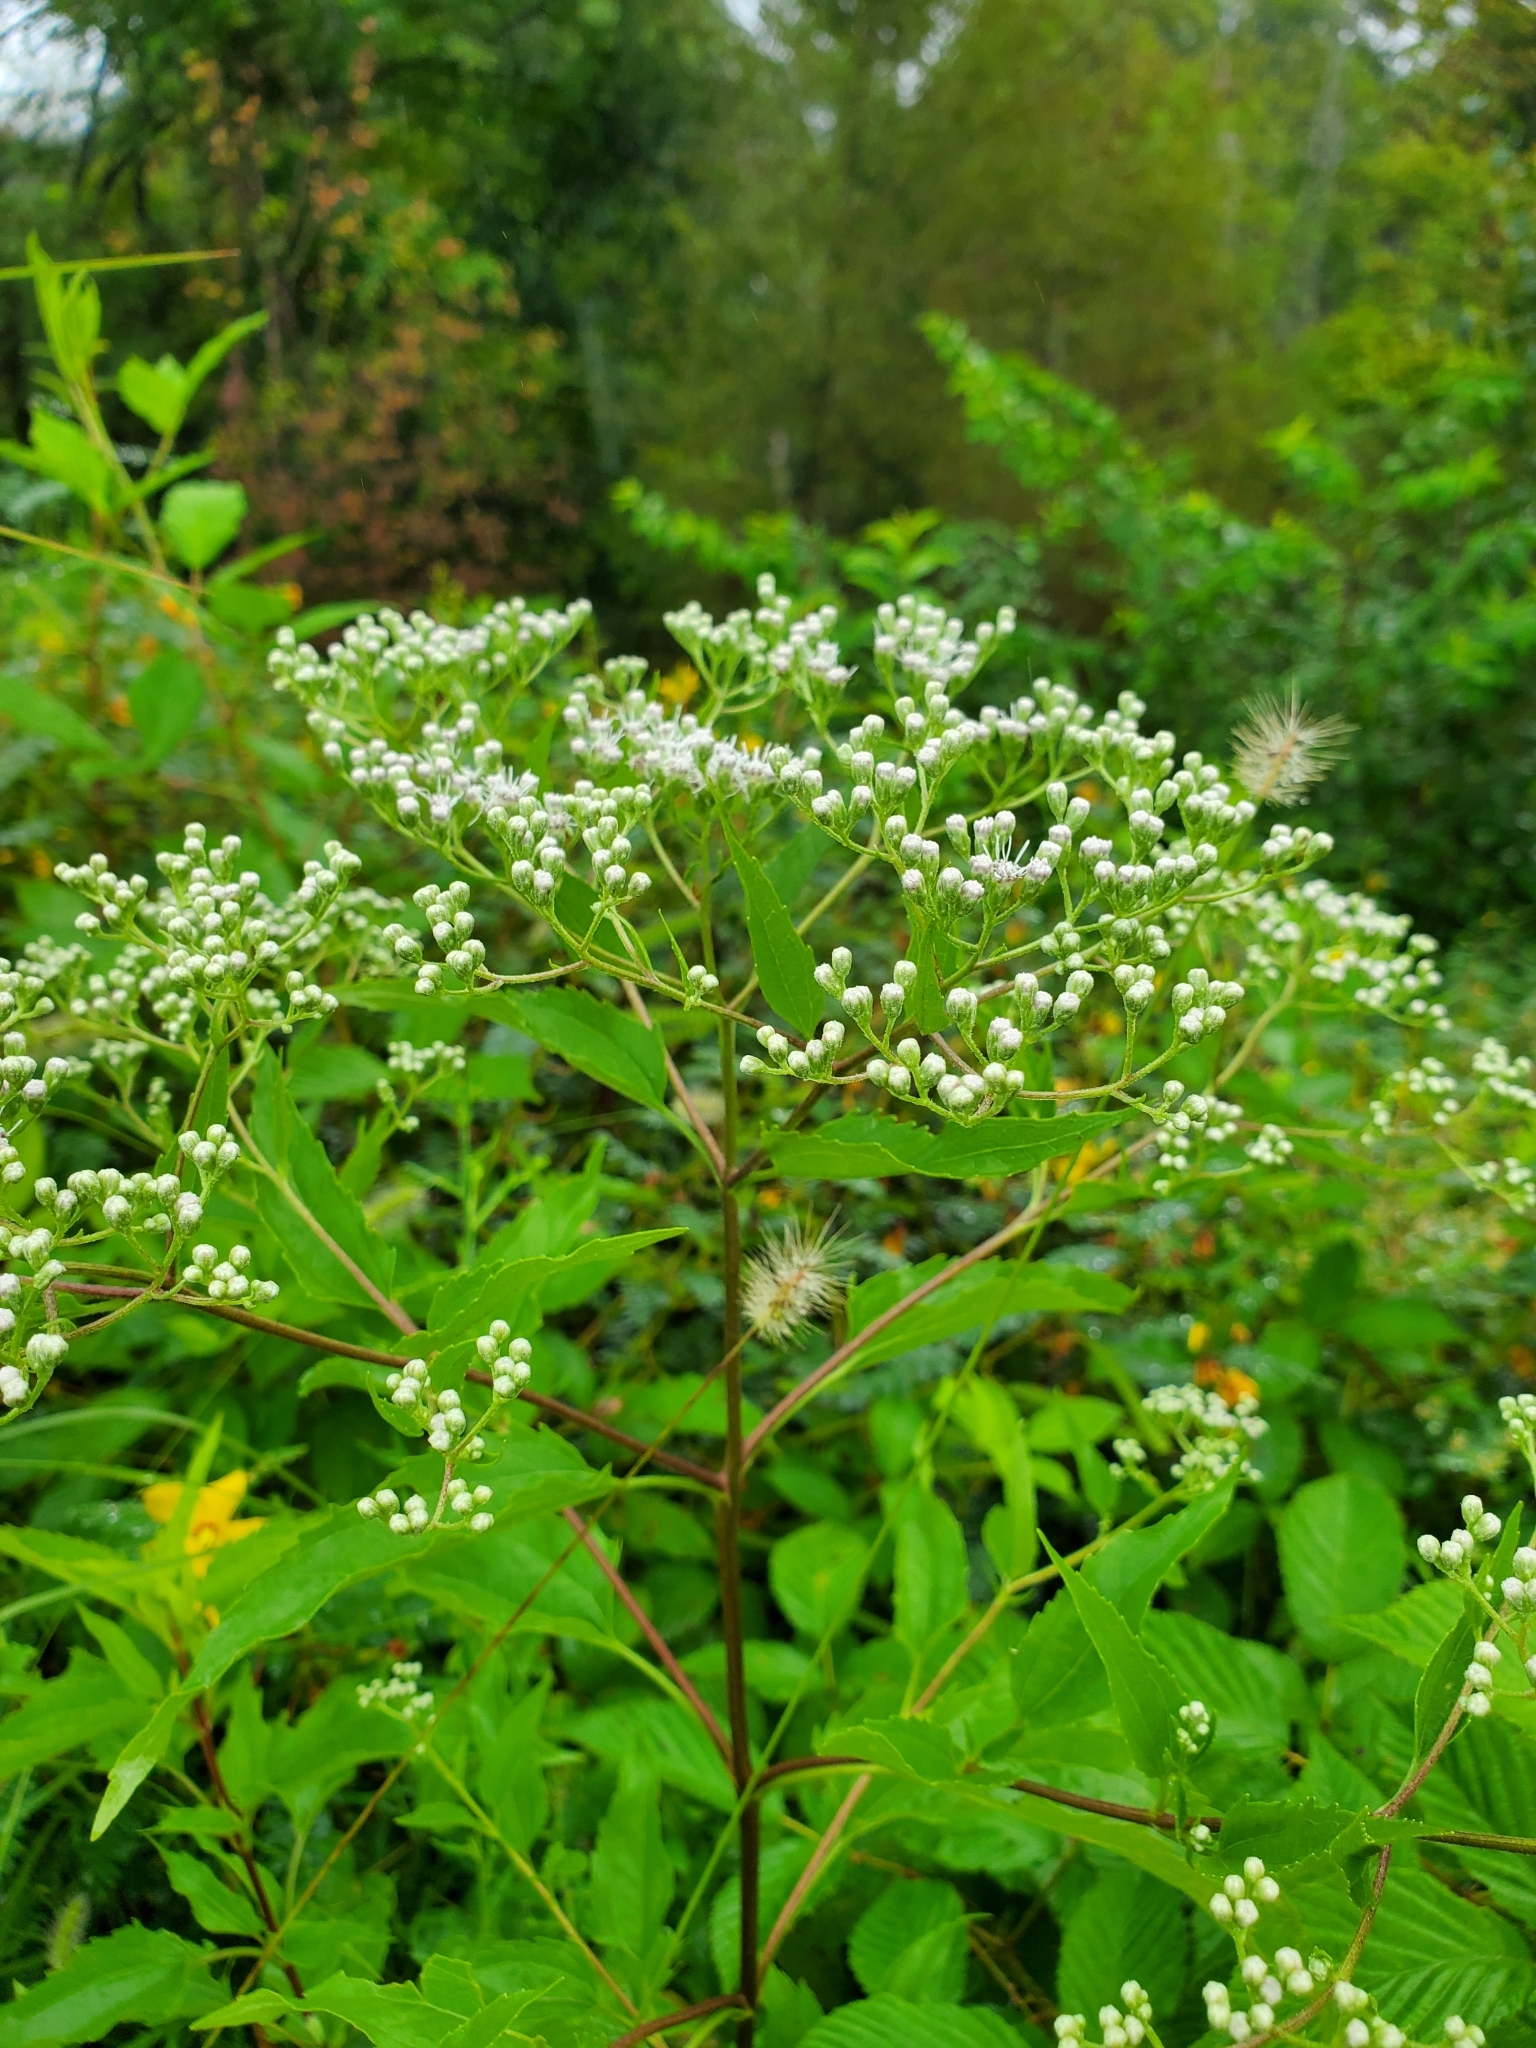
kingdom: Plantae
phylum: Tracheophyta
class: Magnoliopsida
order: Asterales
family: Asteraceae
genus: Eupatorium
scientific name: Eupatorium serotinum
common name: Late boneset
